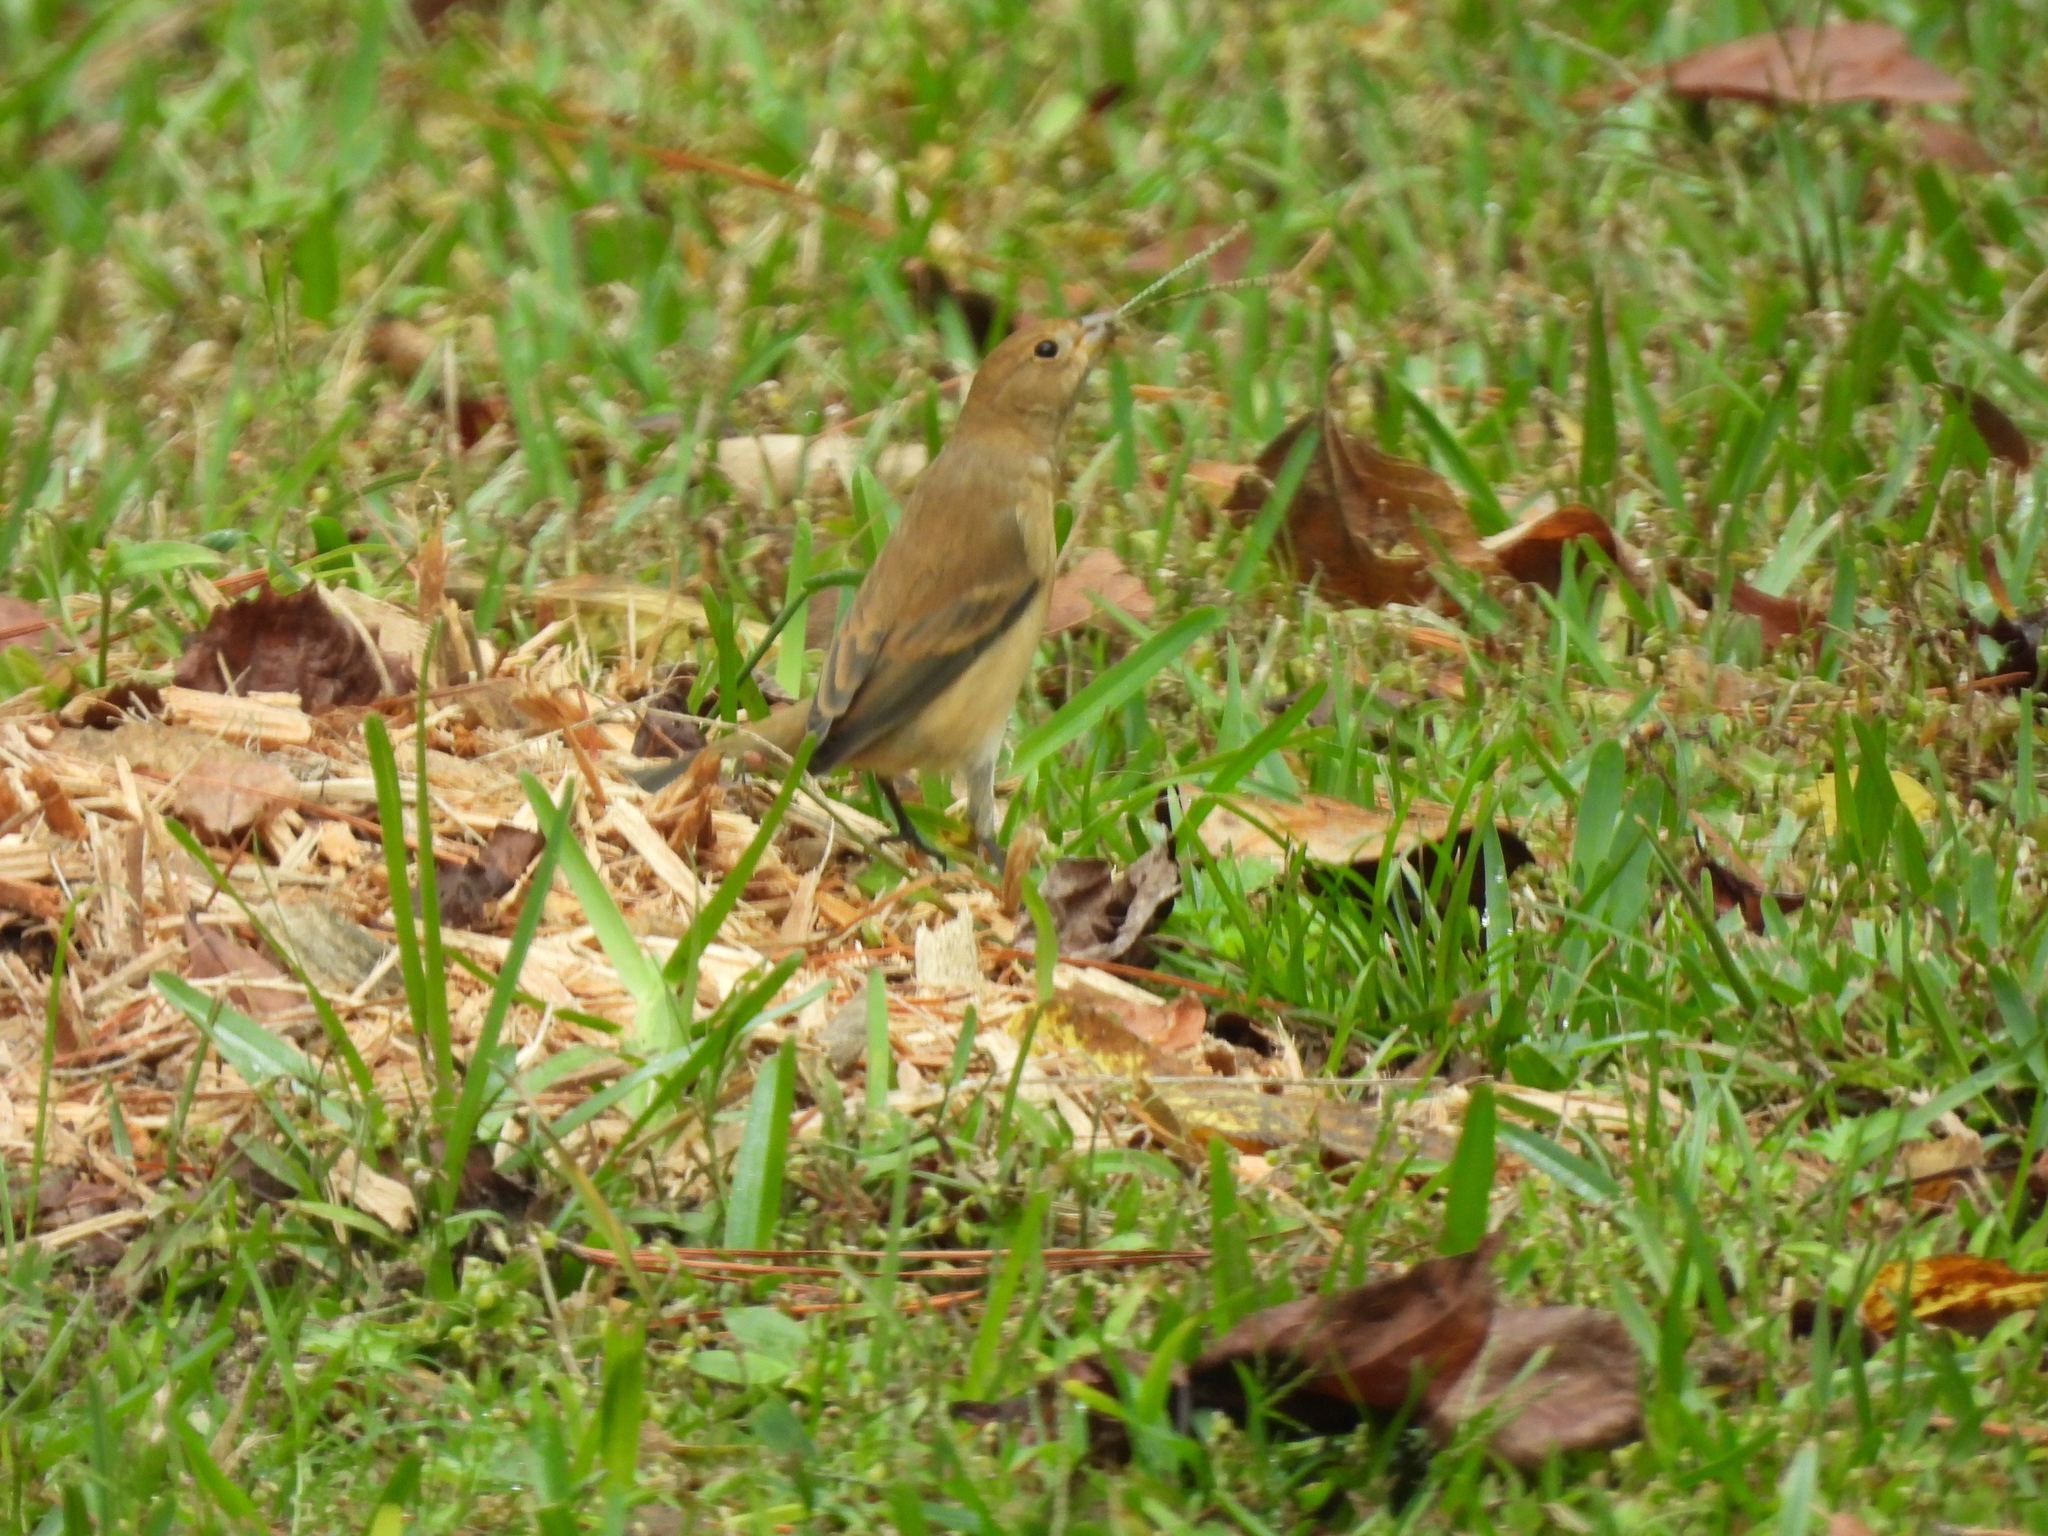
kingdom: Animalia
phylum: Chordata
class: Aves
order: Passeriformes
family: Cardinalidae
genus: Passerina
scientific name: Passerina cyanea
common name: Indigo bunting
